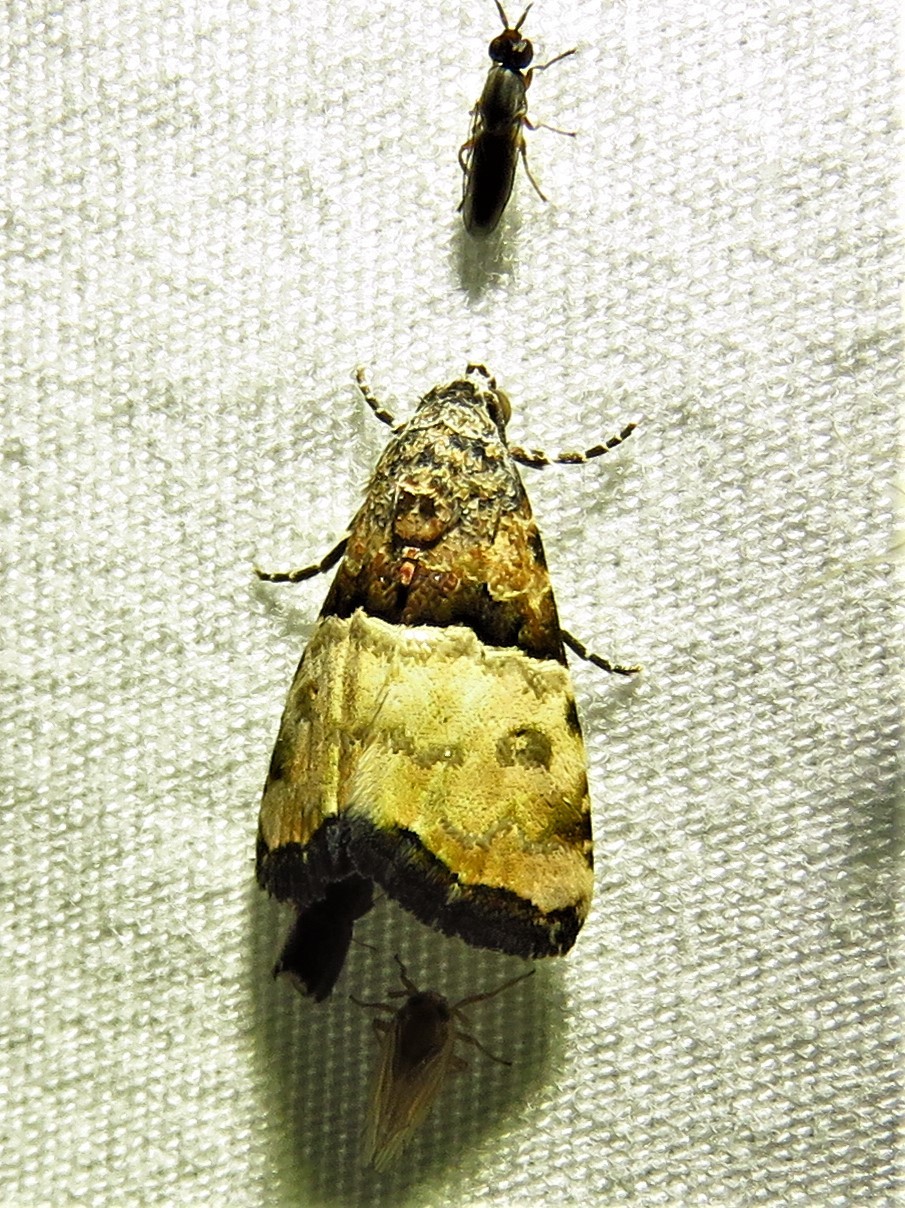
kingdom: Animalia
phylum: Arthropoda
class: Insecta
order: Lepidoptera
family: Noctuidae
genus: Cobubatha
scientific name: Cobubatha dividua
